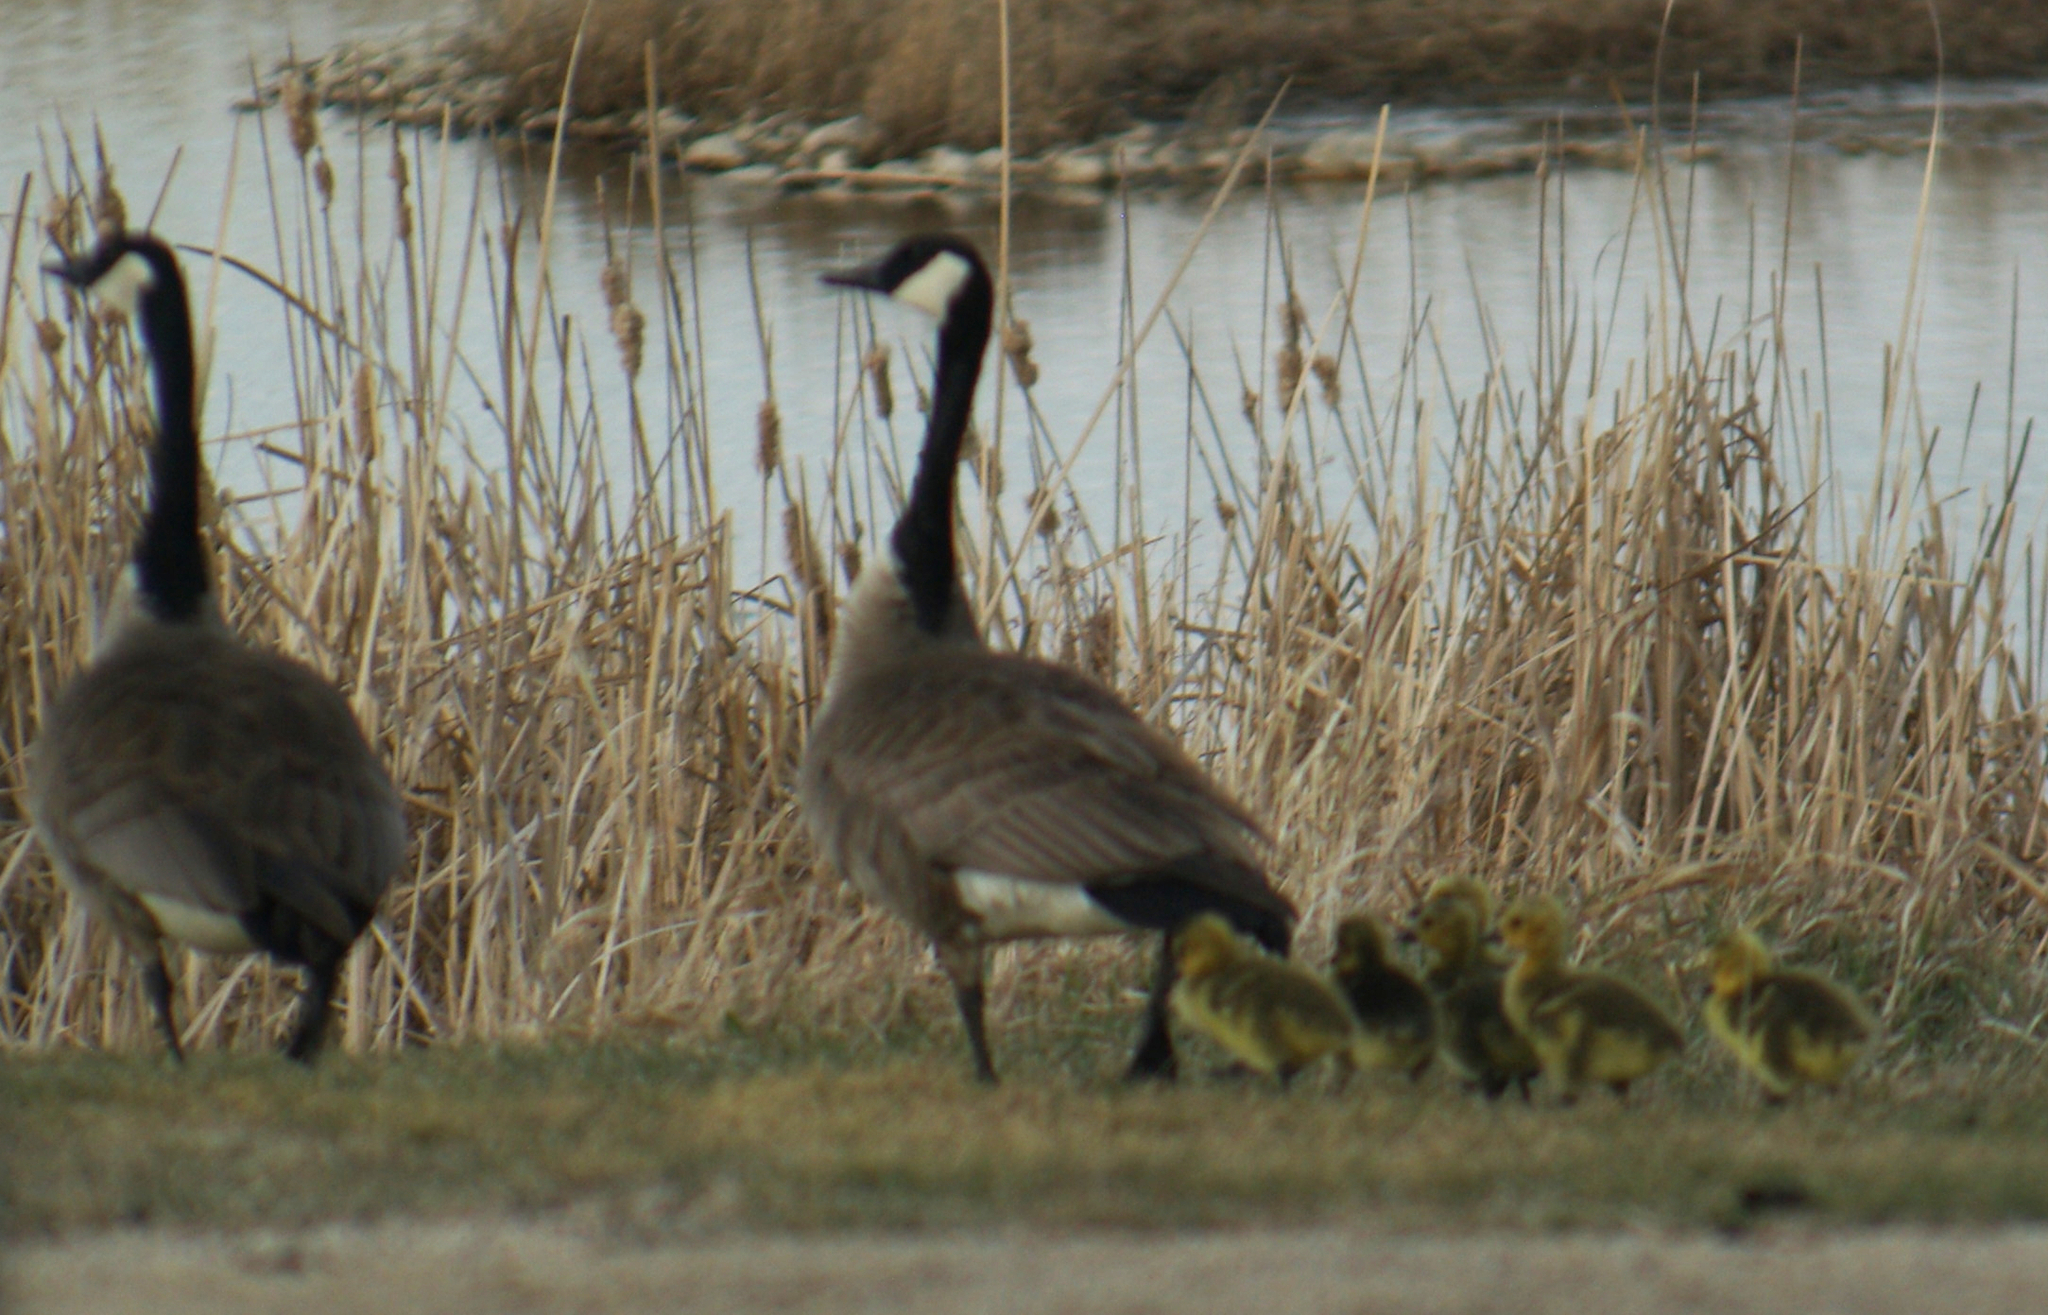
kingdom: Animalia
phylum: Chordata
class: Aves
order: Anseriformes
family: Anatidae
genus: Branta
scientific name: Branta canadensis
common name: Canada goose
